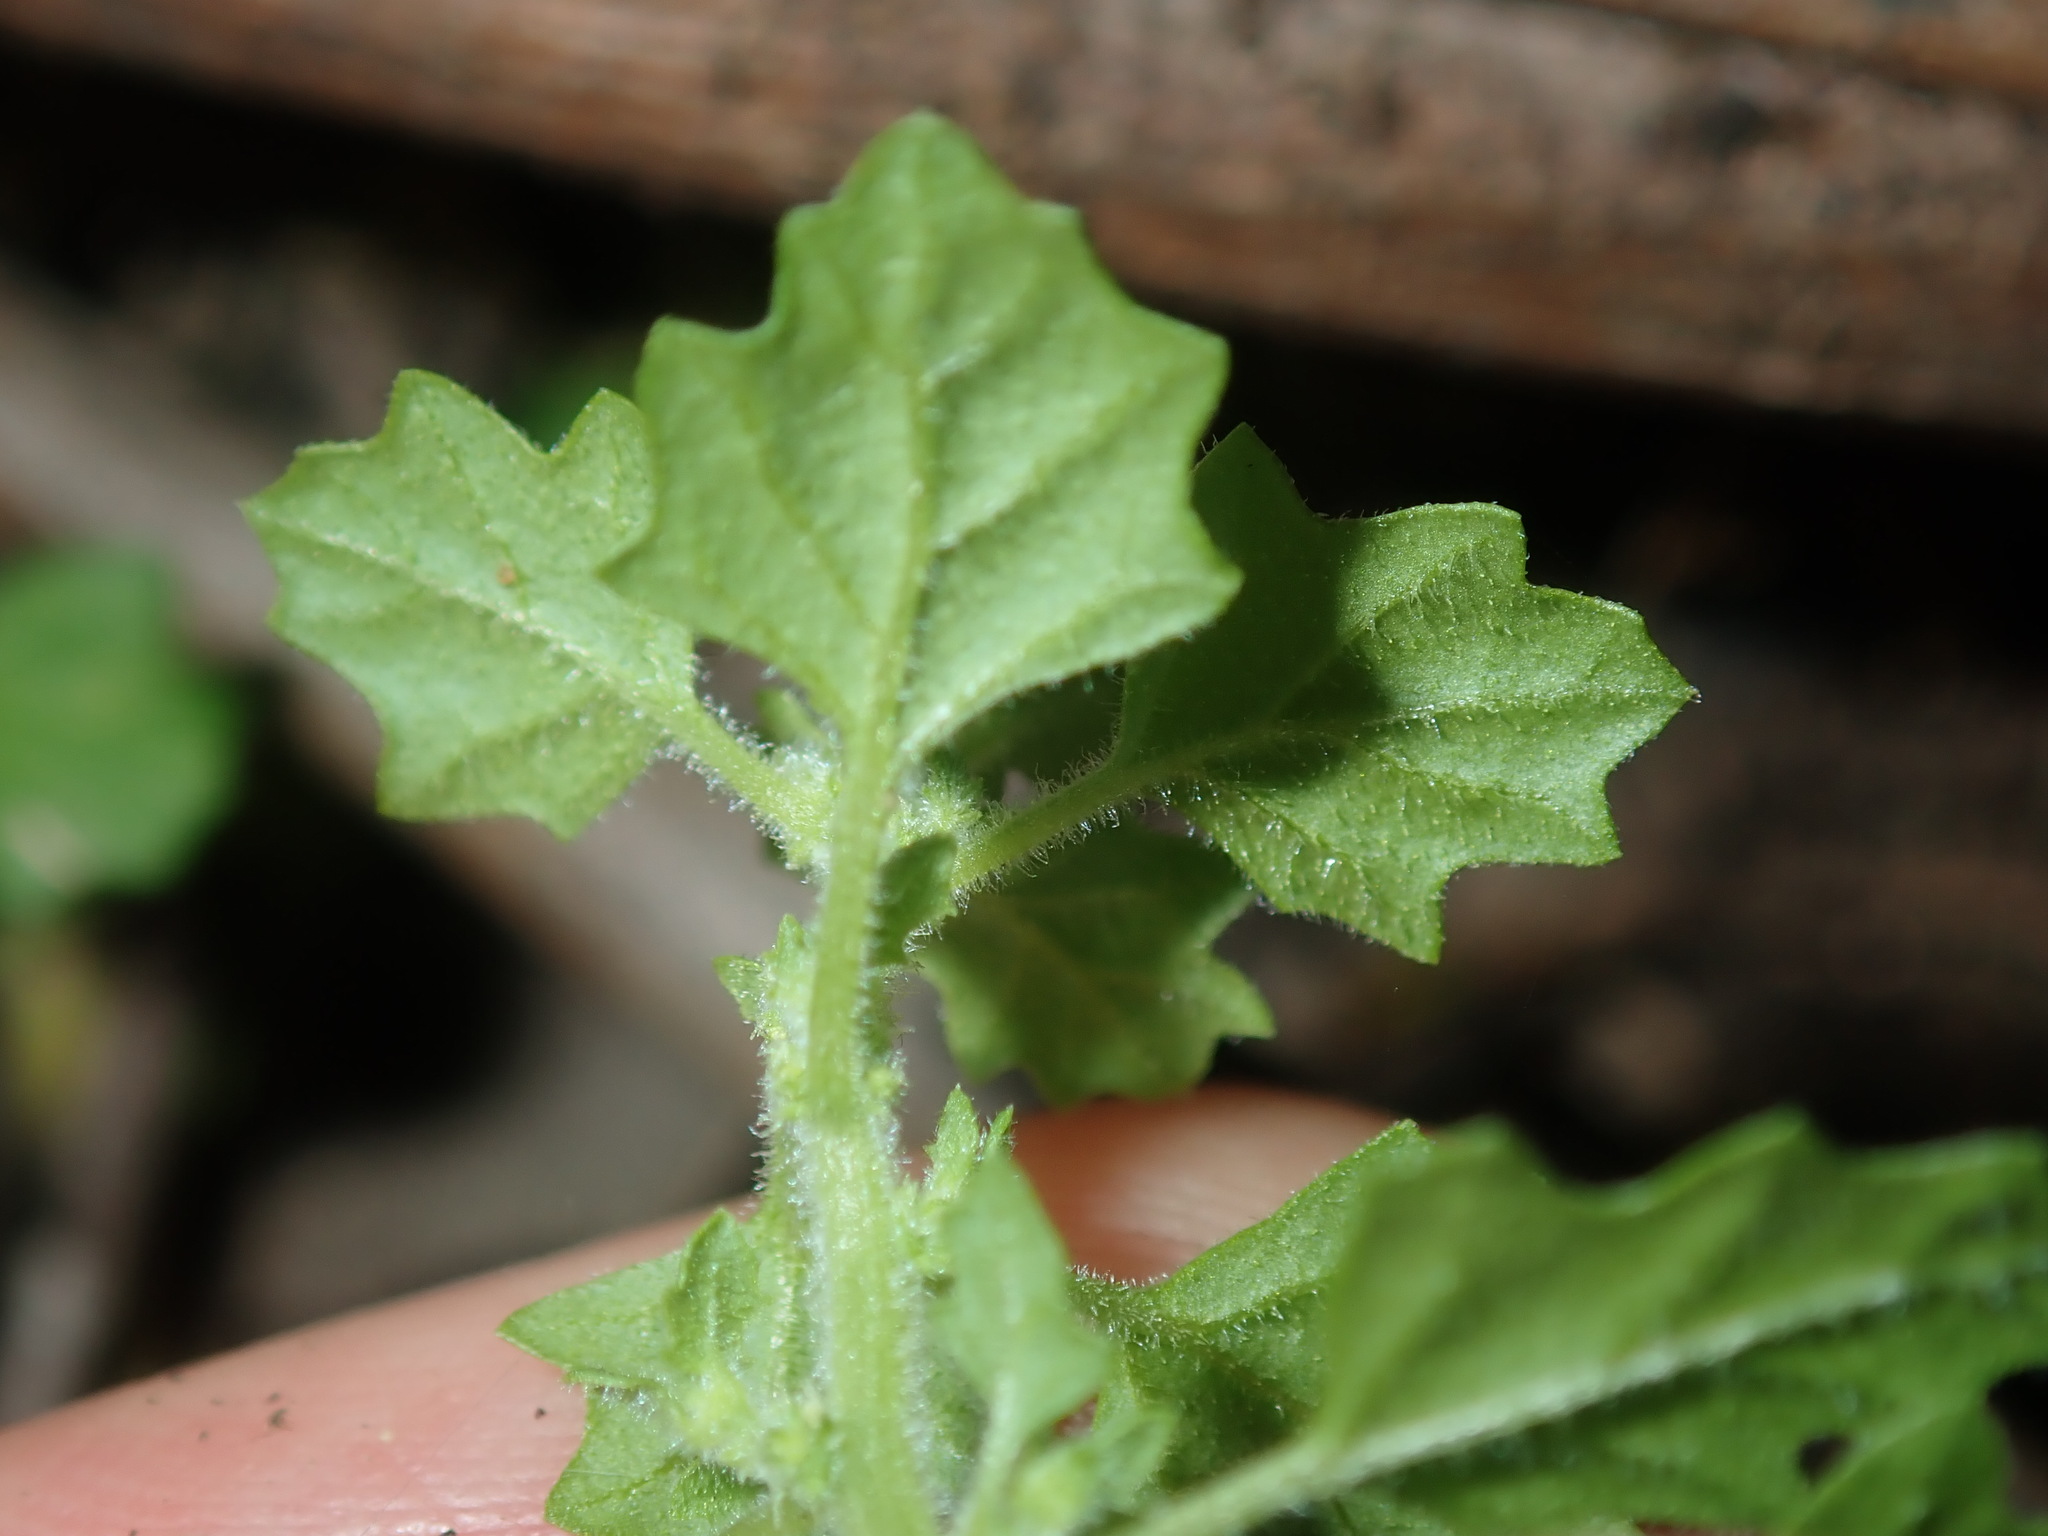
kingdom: Plantae
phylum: Tracheophyta
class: Magnoliopsida
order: Caryophyllales
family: Amaranthaceae
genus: Dysphania
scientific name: Dysphania pumilio
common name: Clammy goosefoot
